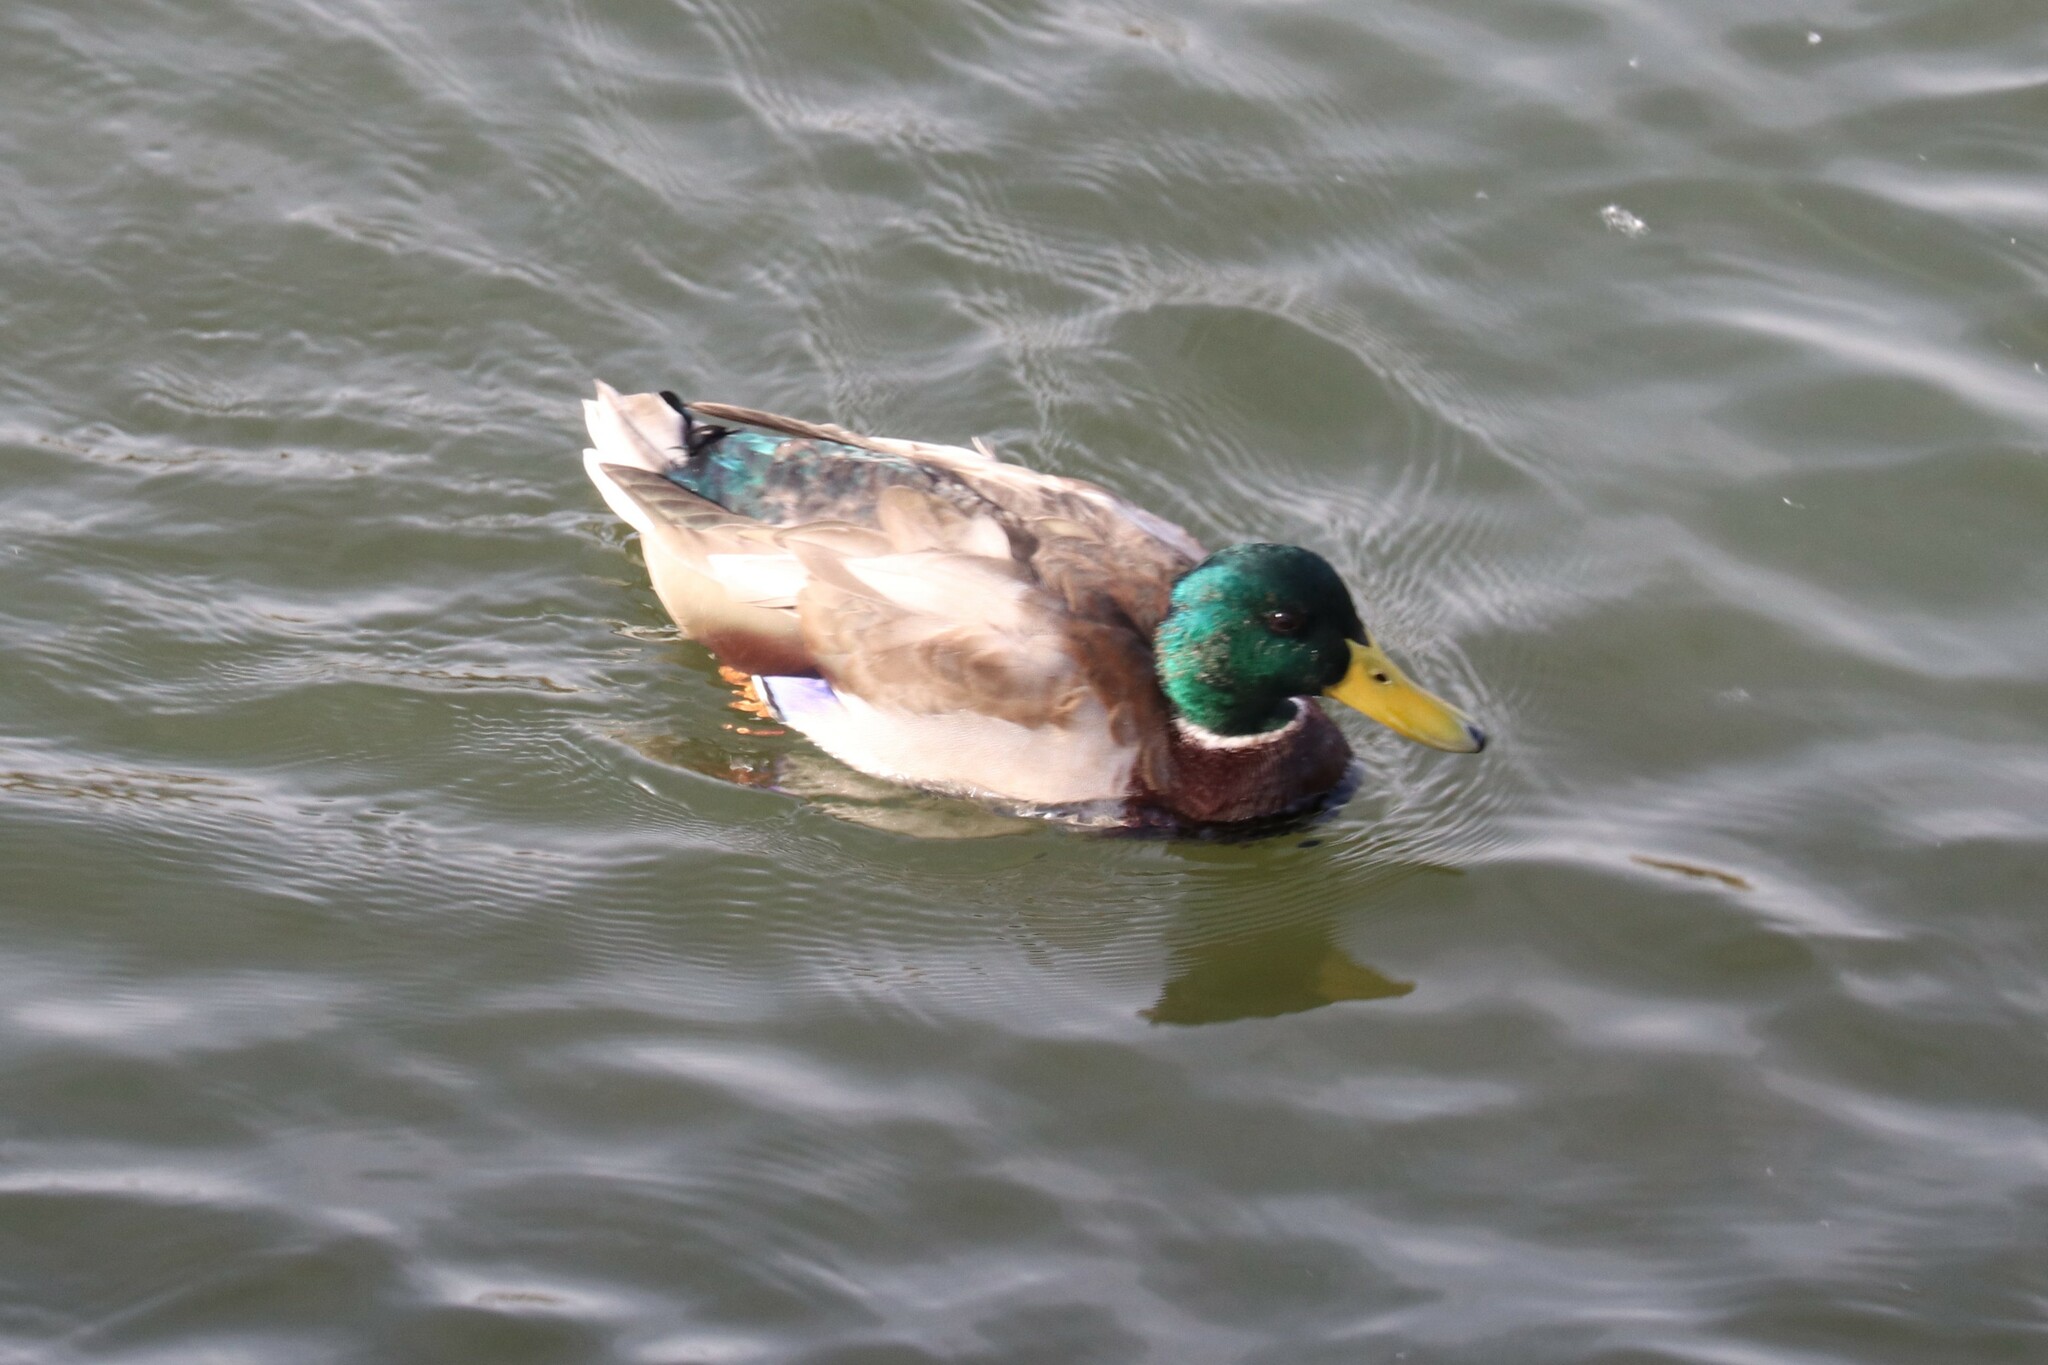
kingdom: Animalia
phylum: Chordata
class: Aves
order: Anseriformes
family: Anatidae
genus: Anas
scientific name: Anas platyrhynchos
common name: Mallard
